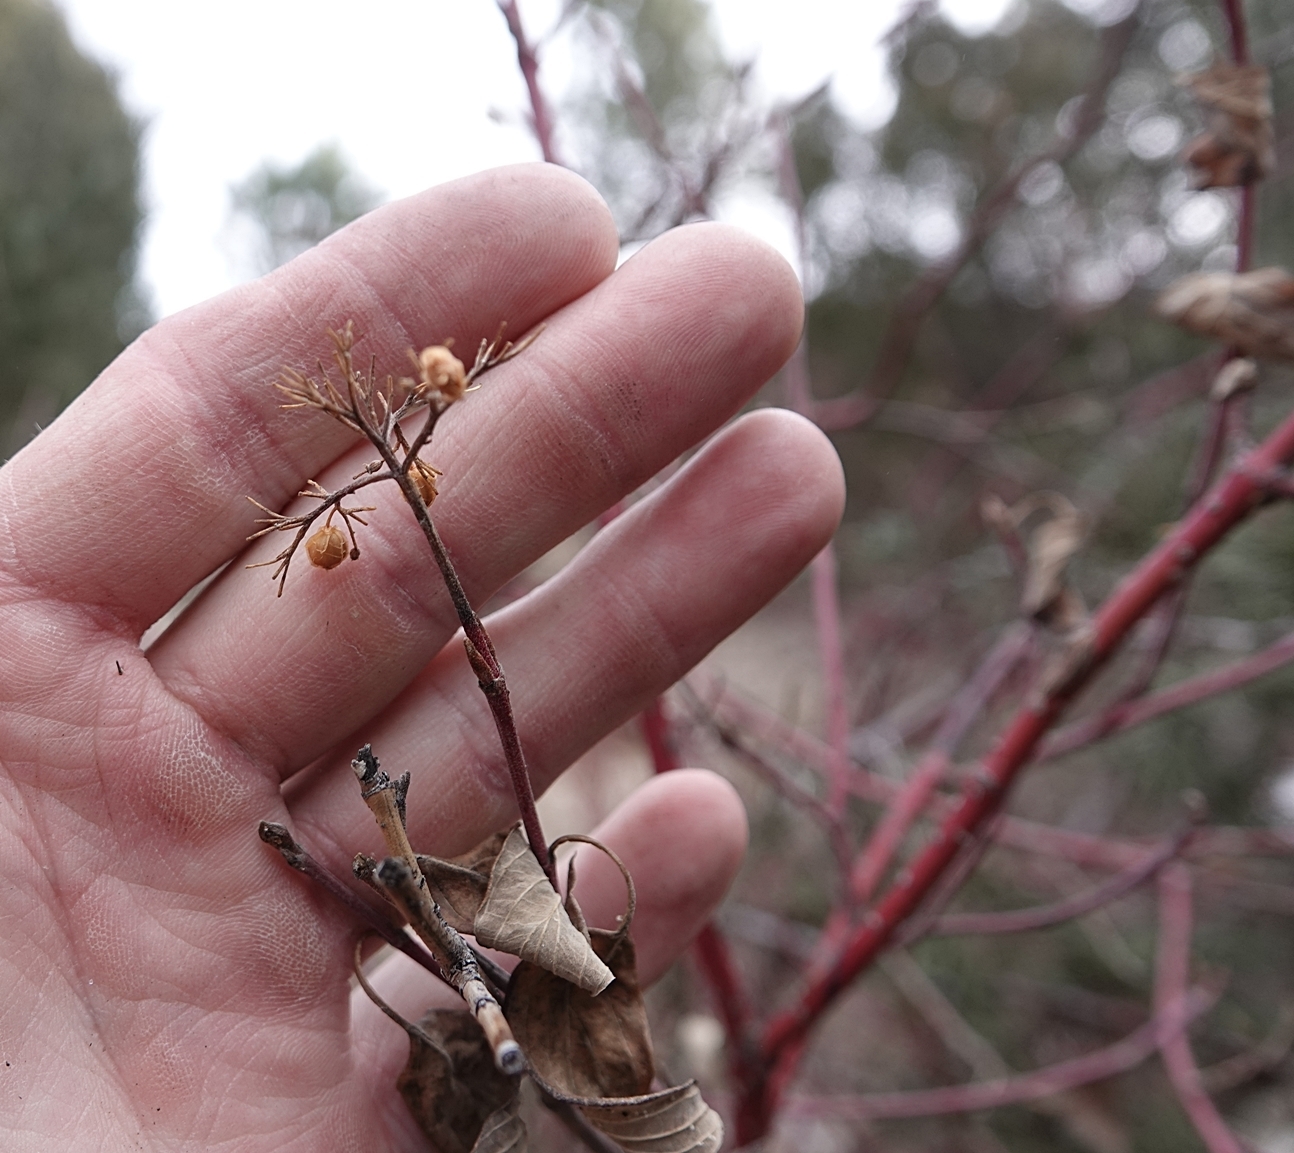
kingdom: Plantae
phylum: Tracheophyta
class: Magnoliopsida
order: Cornales
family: Cornaceae
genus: Cornus
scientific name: Cornus sericea
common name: Red-osier dogwood
